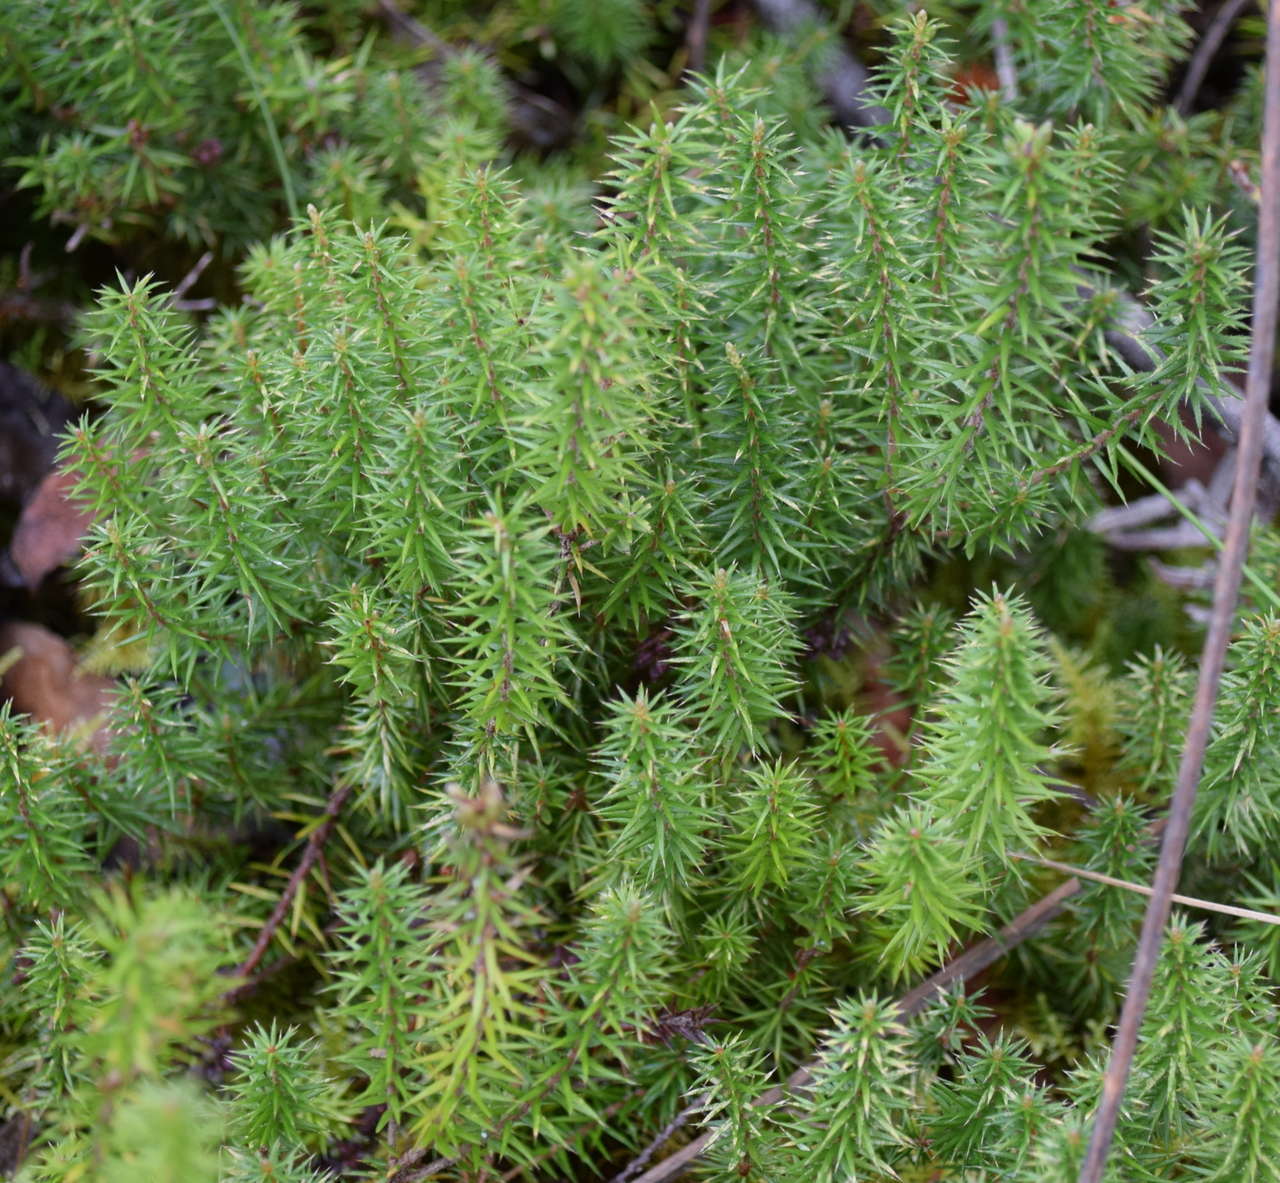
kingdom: Plantae
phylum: Tracheophyta
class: Magnoliopsida
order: Ericales
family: Ericaceae
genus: Acrotriche
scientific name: Acrotriche serrulata
